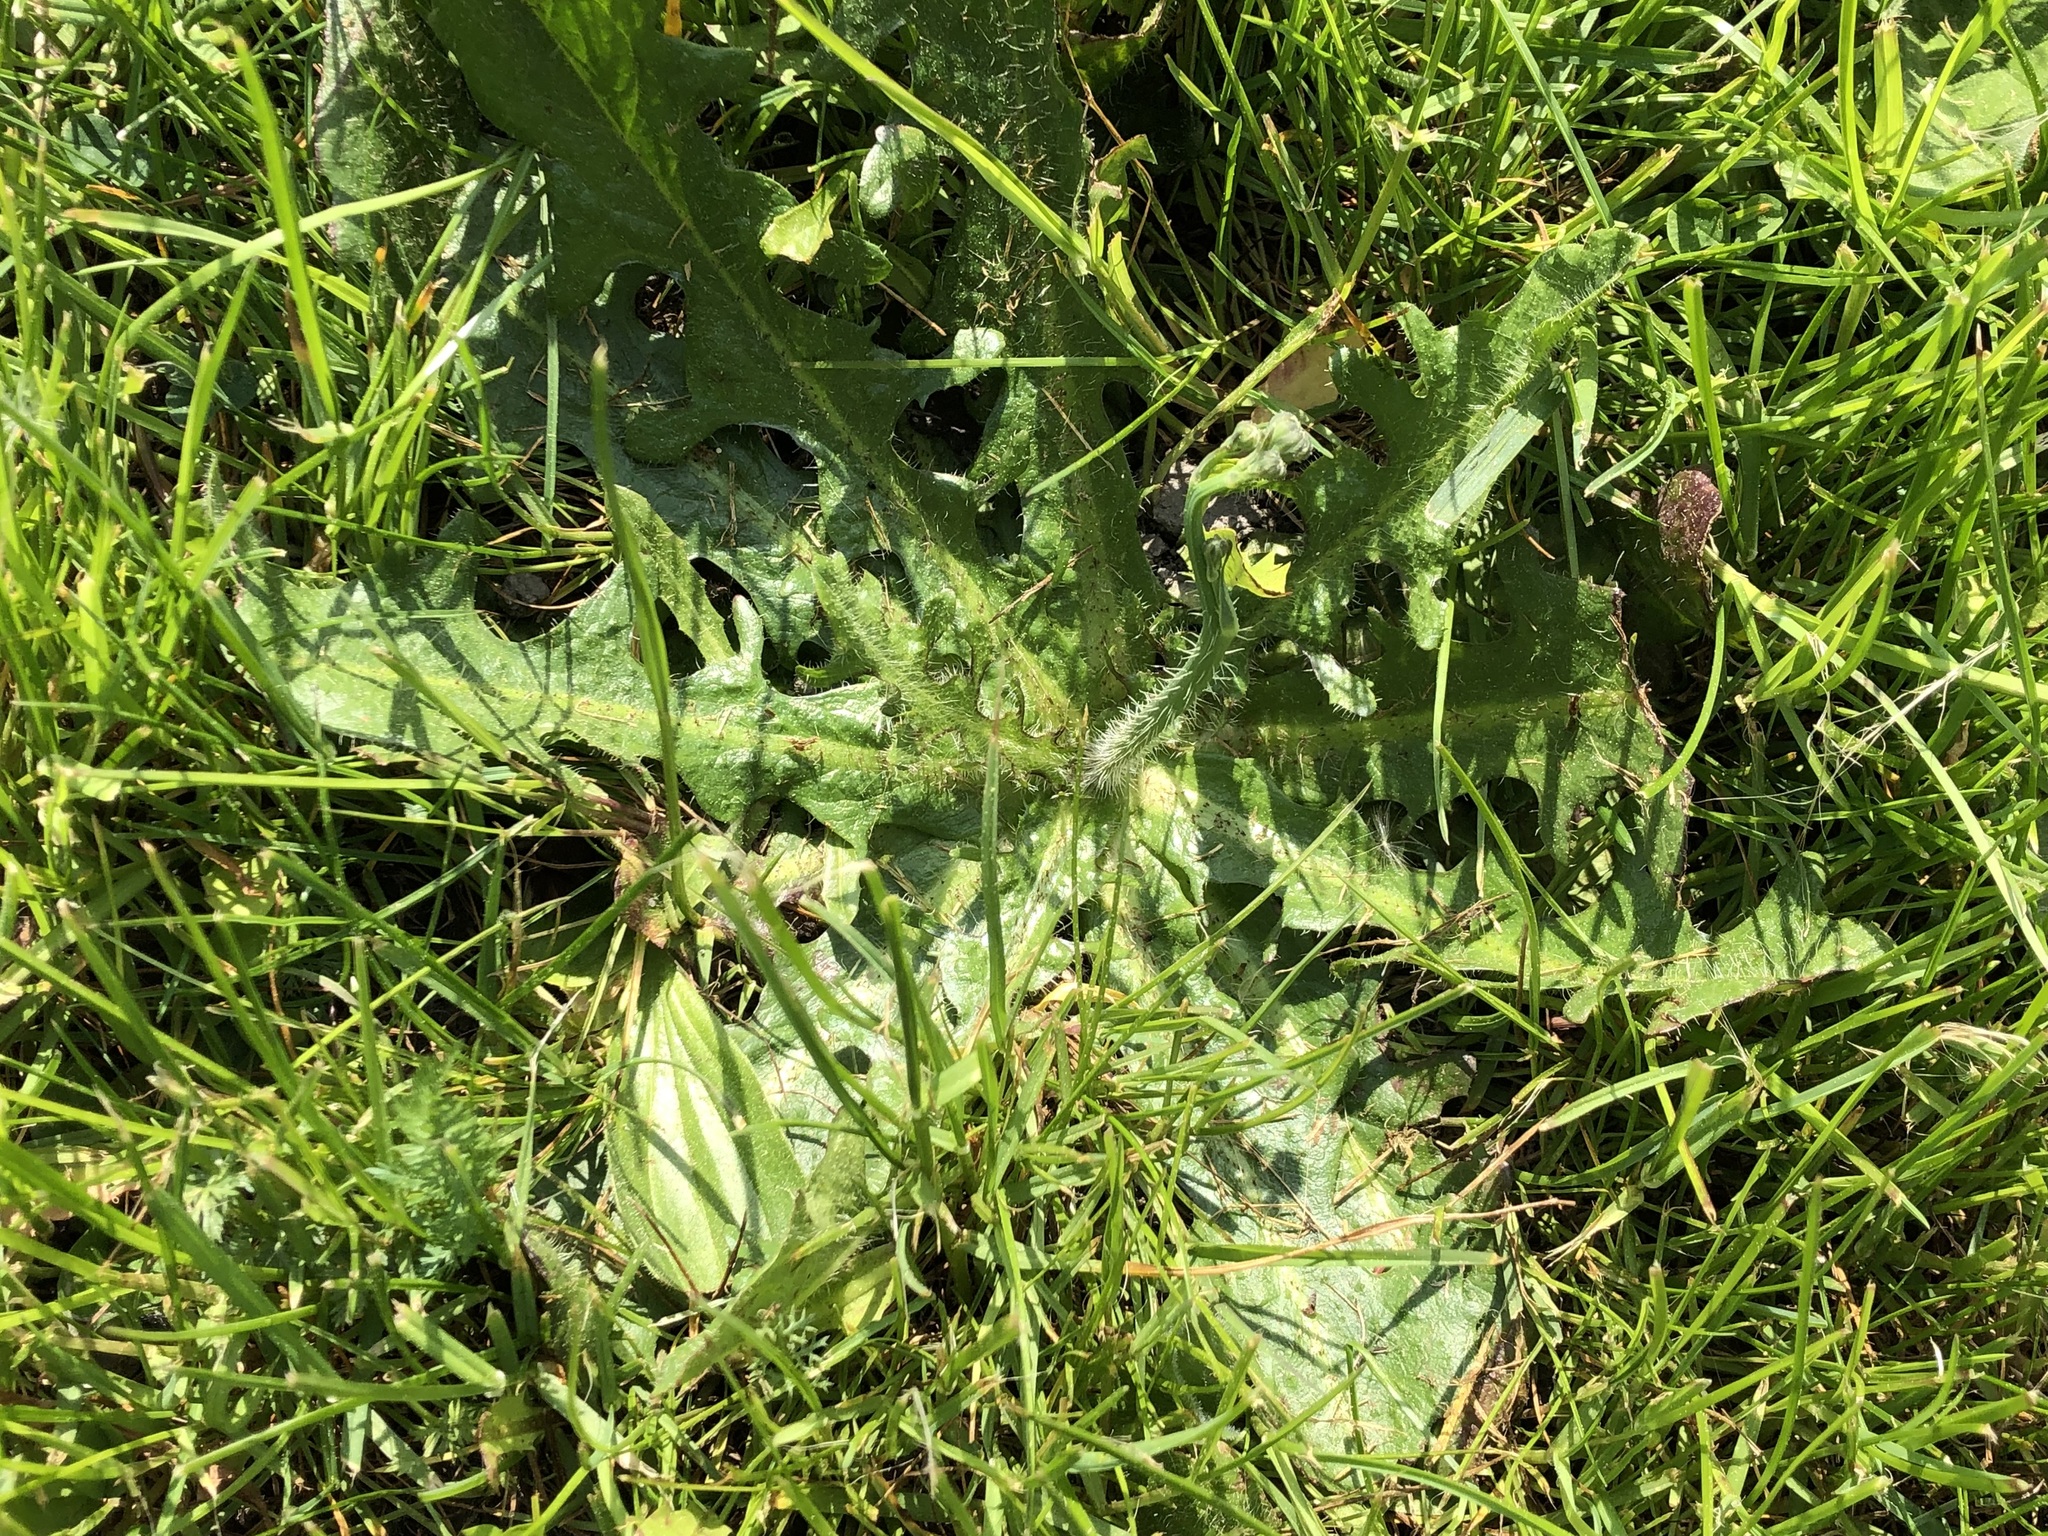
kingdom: Plantae
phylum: Tracheophyta
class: Magnoliopsida
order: Asterales
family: Asteraceae
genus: Hypochaeris
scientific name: Hypochaeris radicata
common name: Flatweed
